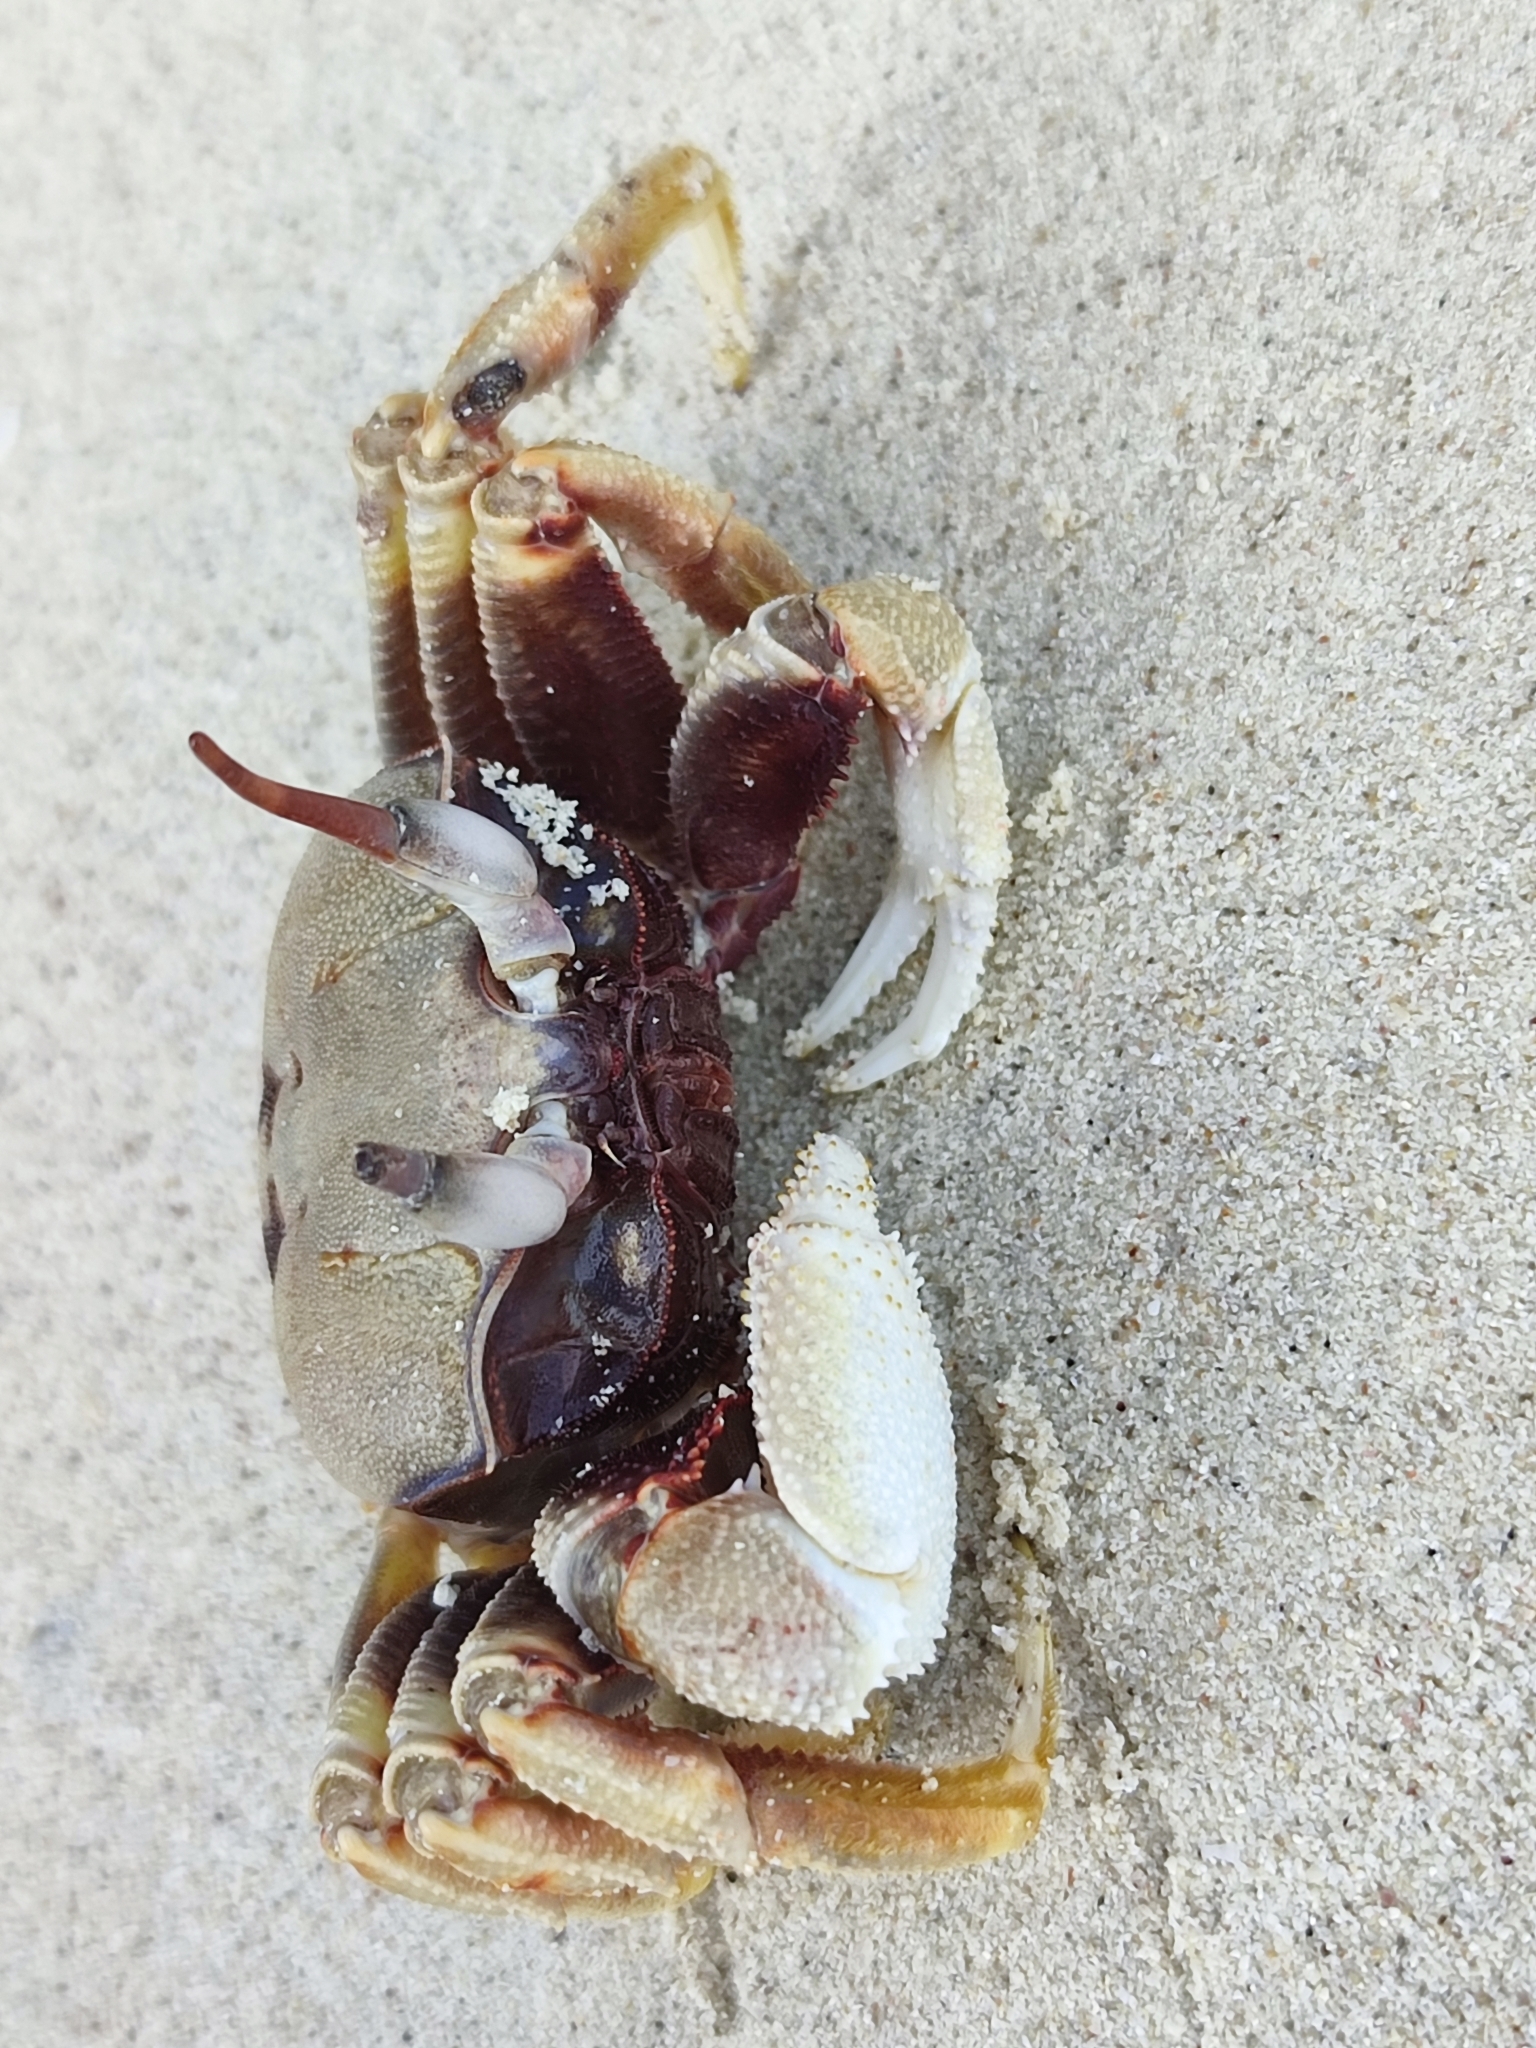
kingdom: Animalia
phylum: Arthropoda
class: Malacostraca
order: Decapoda
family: Ocypodidae
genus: Ocypode
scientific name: Ocypode ceratophthalmus
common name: Indo-pacific ghost crab
